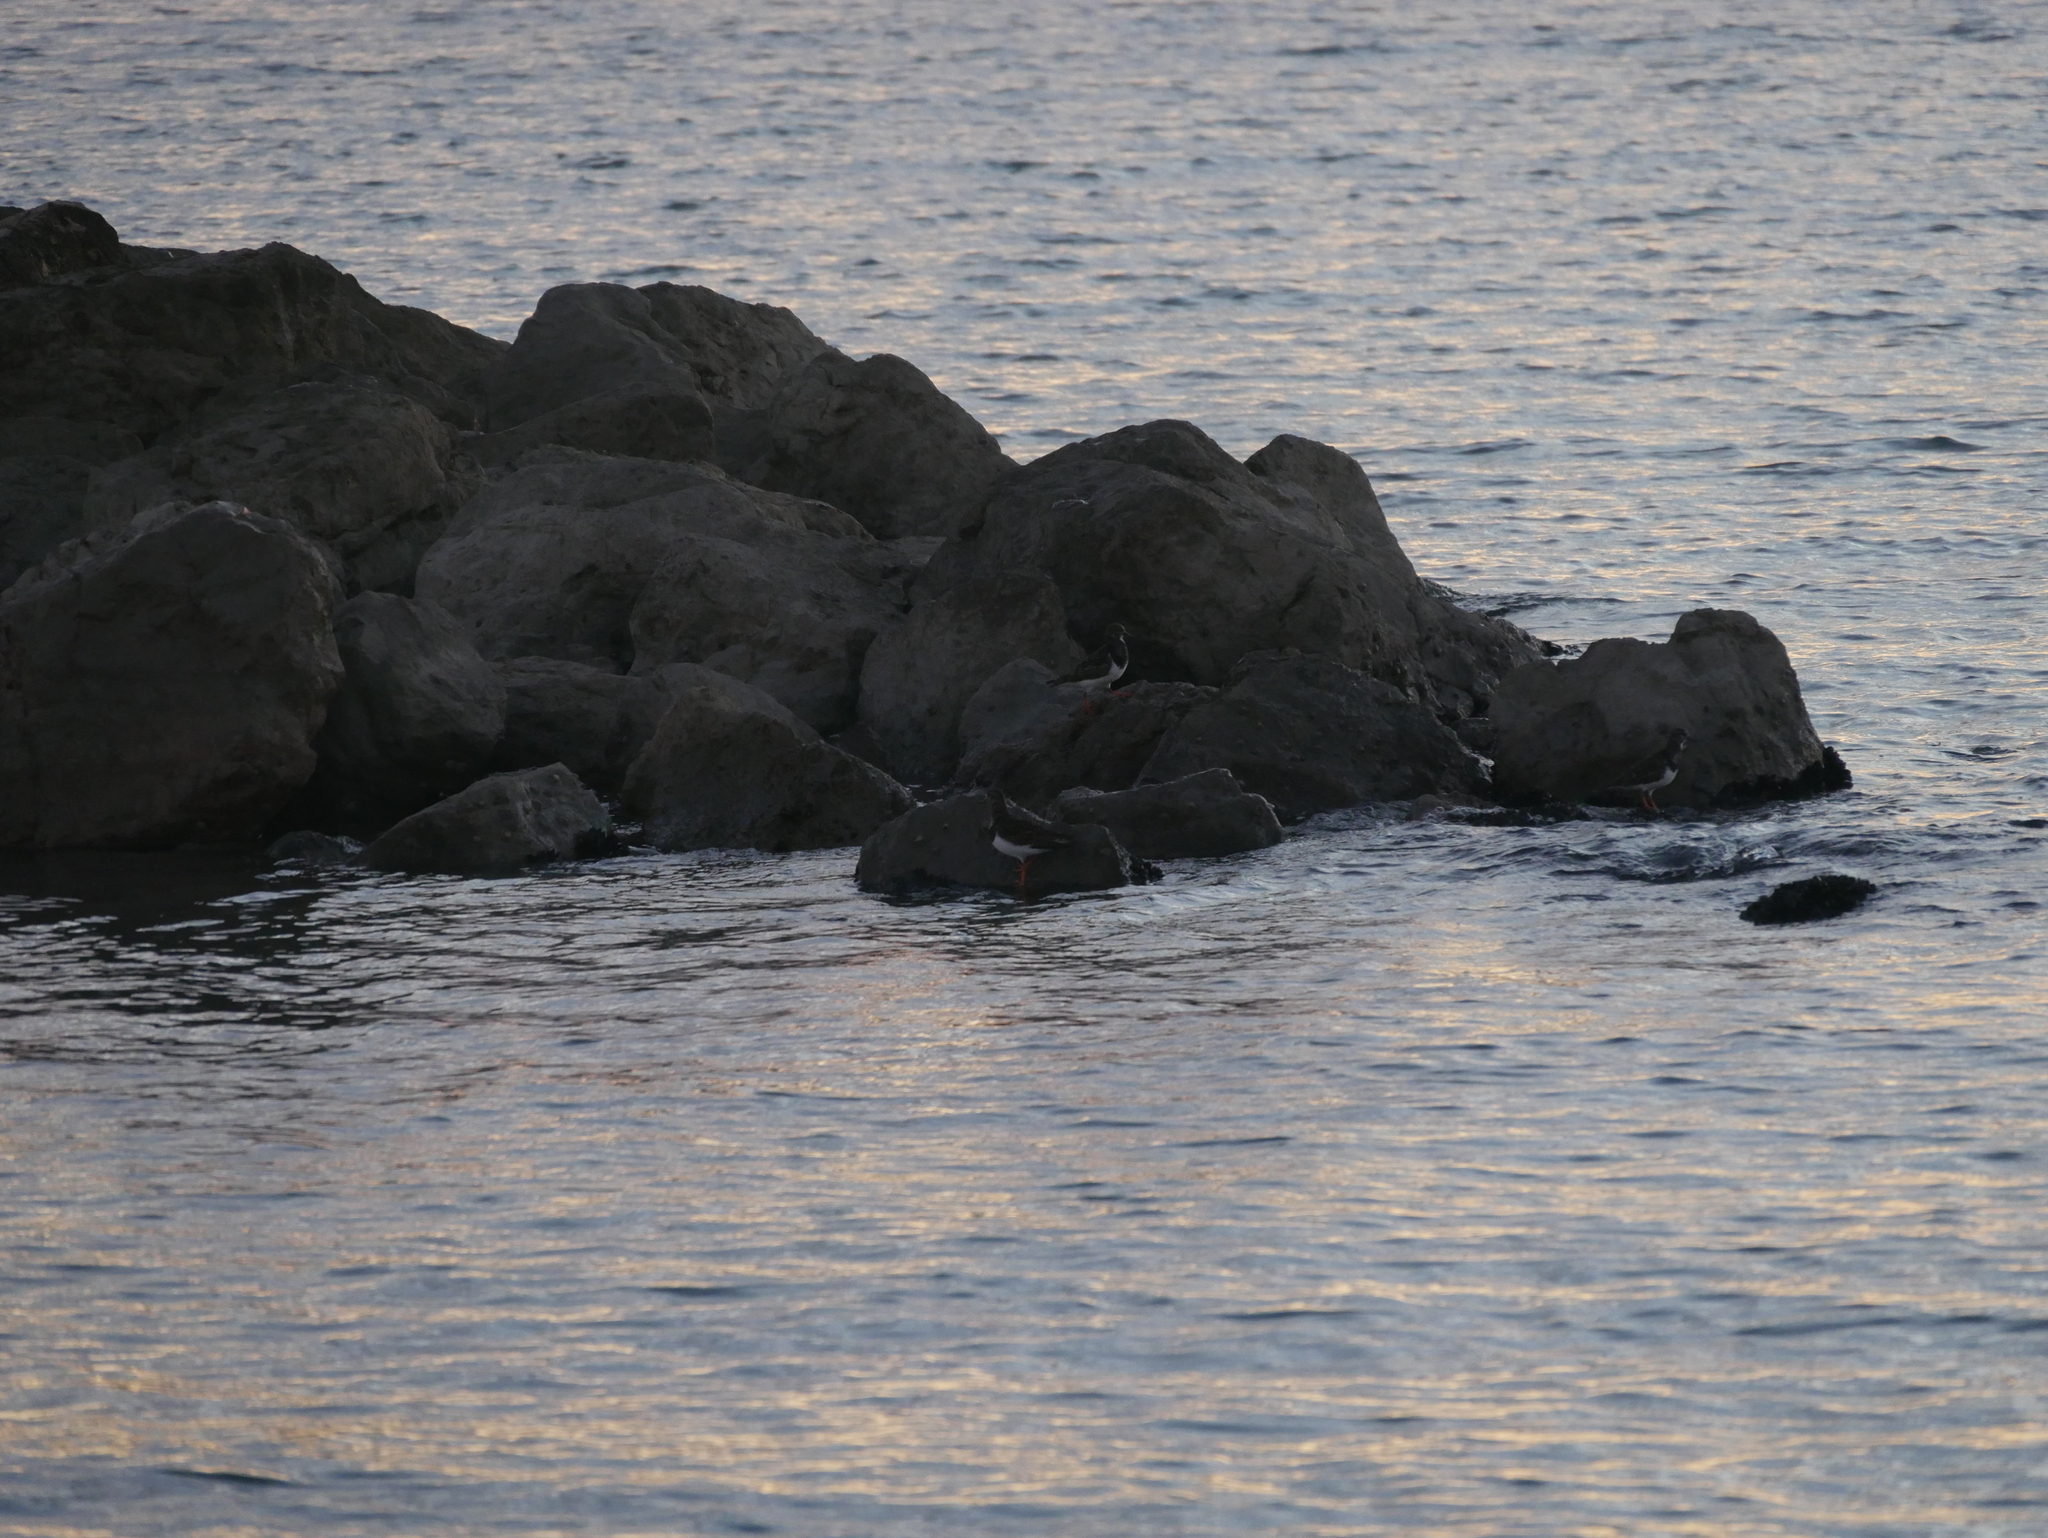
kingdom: Animalia
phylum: Chordata
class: Aves
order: Charadriiformes
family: Scolopacidae
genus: Arenaria
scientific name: Arenaria interpres
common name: Ruddy turnstone
